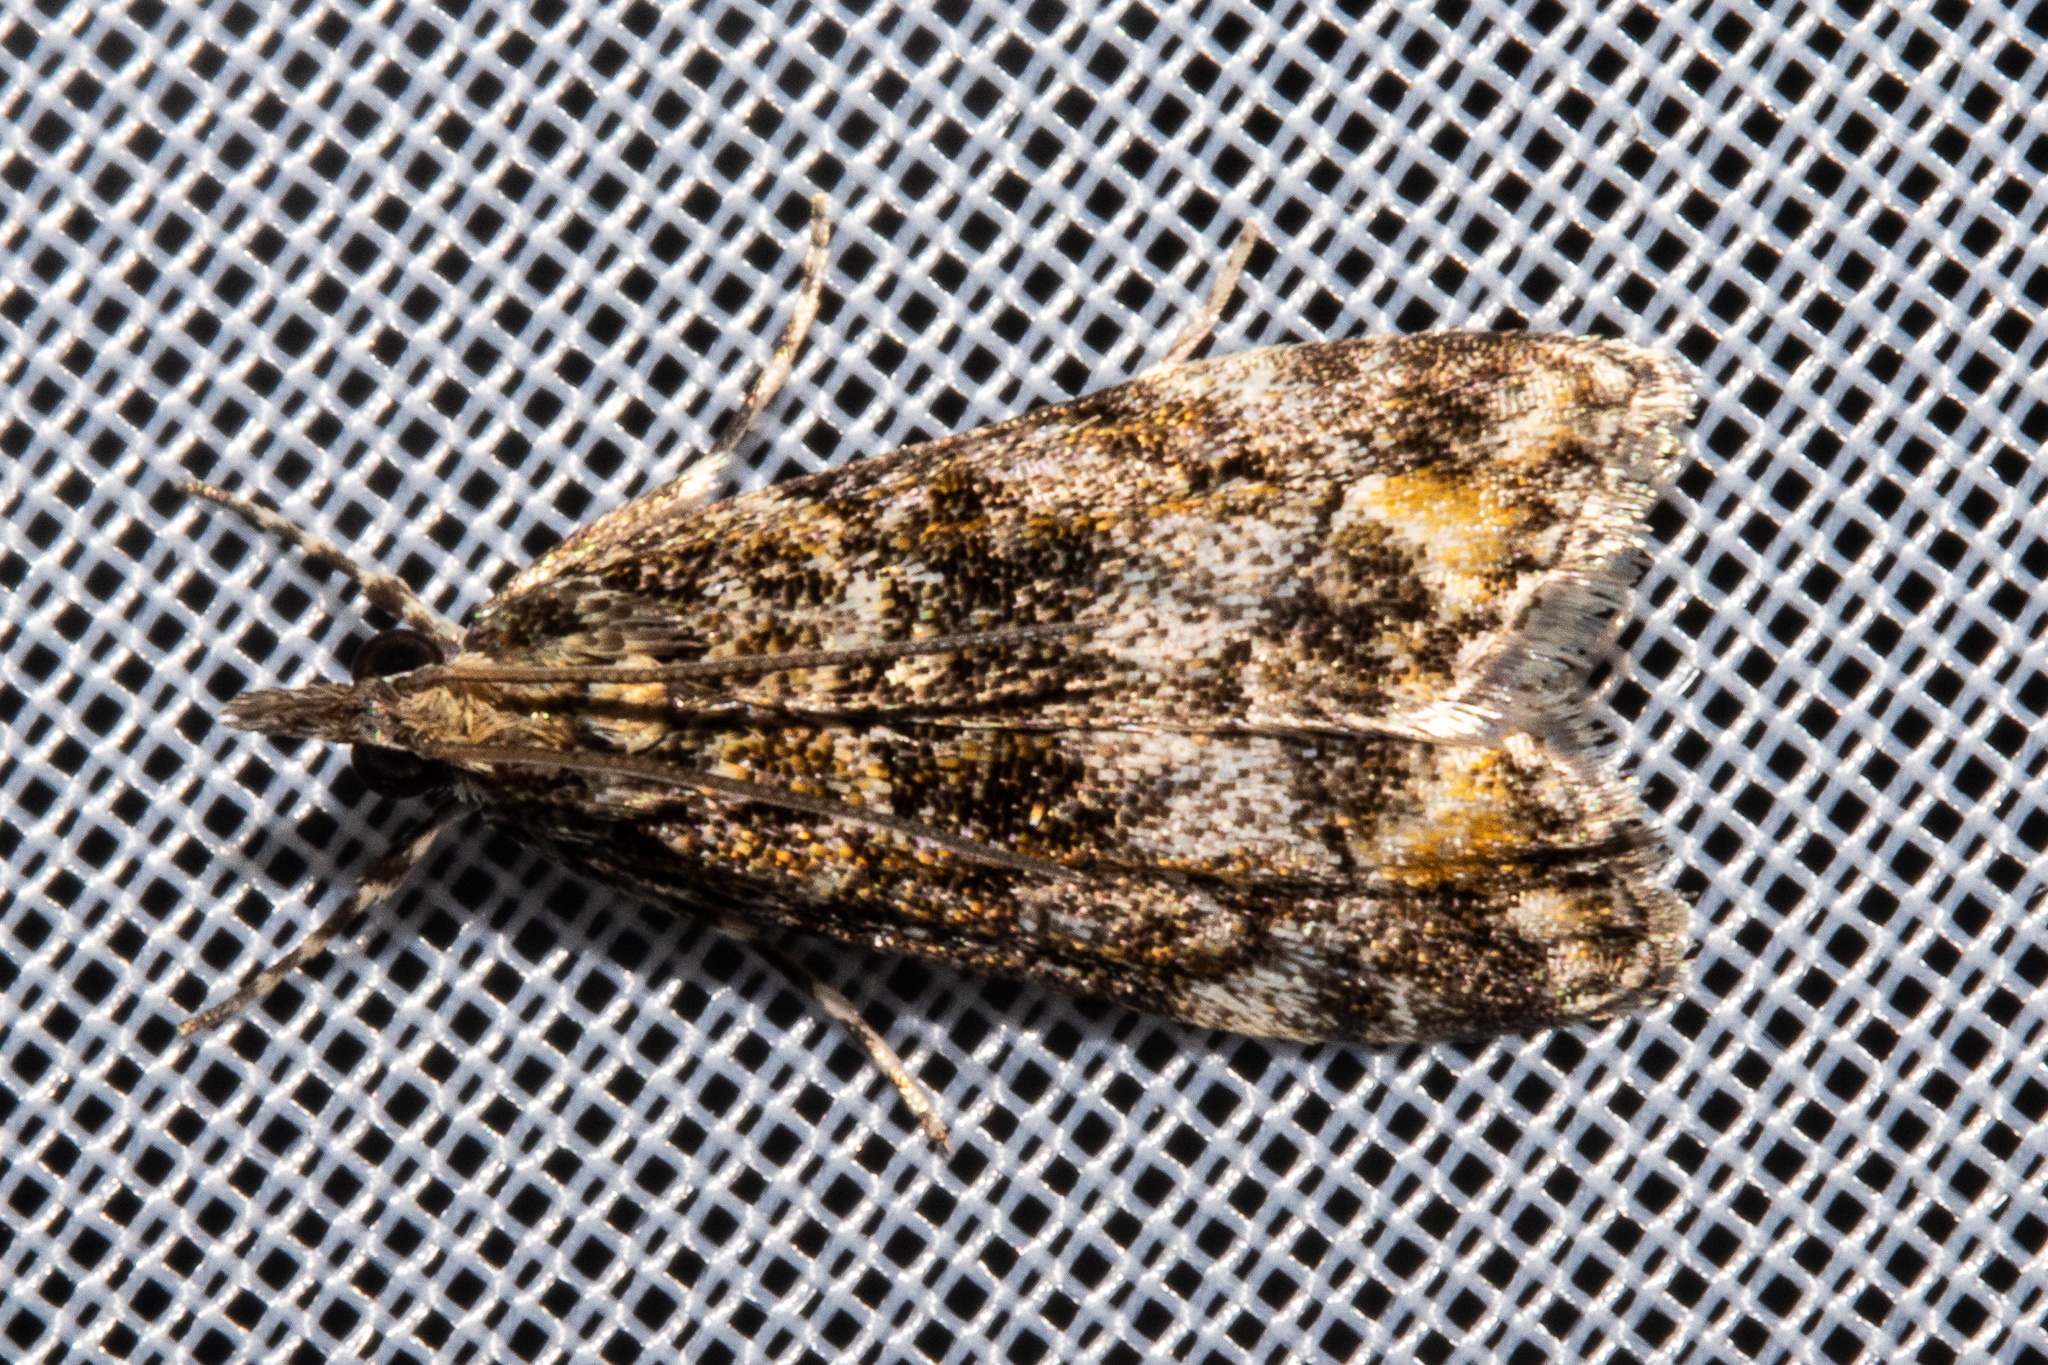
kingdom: Animalia
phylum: Arthropoda
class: Insecta
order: Lepidoptera
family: Crambidae
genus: Eudonia
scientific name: Eudonia minualis
